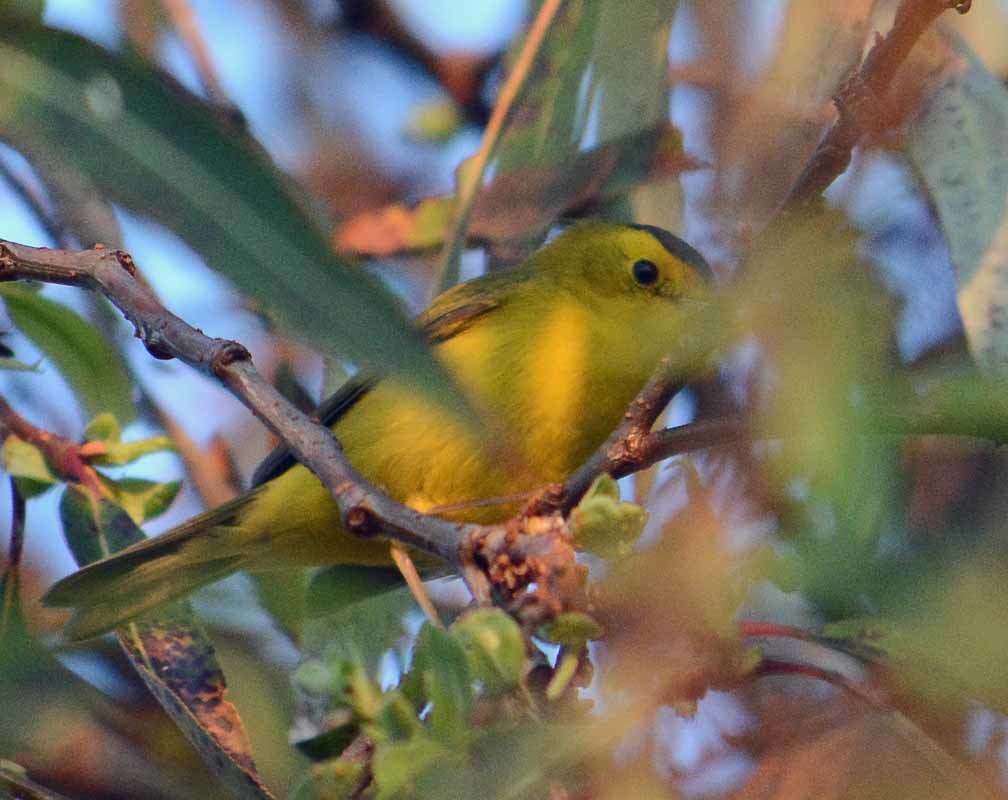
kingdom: Animalia
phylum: Chordata
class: Aves
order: Passeriformes
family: Parulidae
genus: Cardellina
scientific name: Cardellina pusilla
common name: Wilson's warbler
